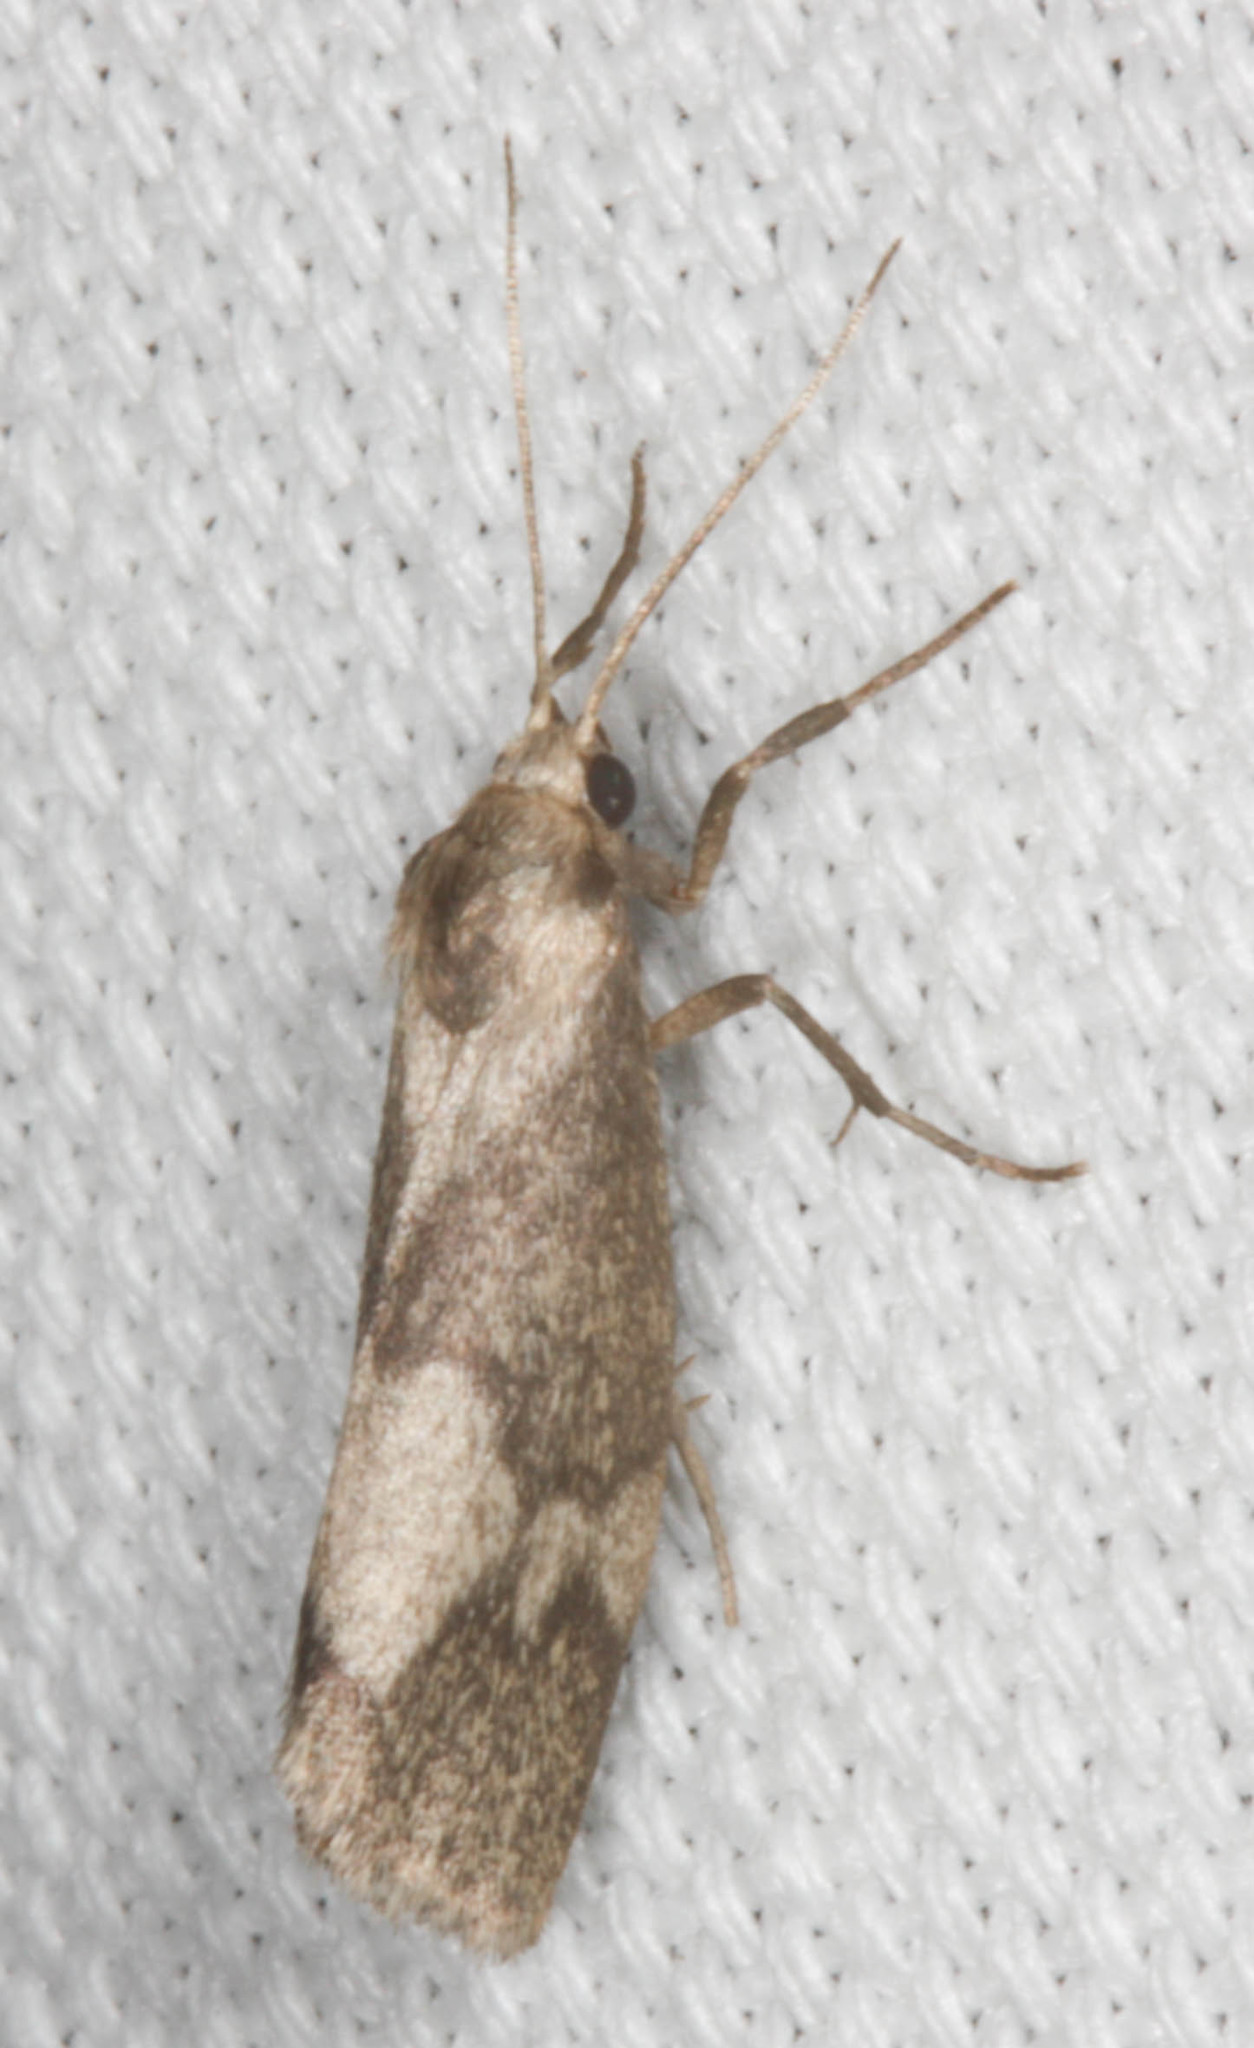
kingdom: Animalia
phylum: Arthropoda
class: Insecta
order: Lepidoptera
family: Erebidae
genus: Cisthene
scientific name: Cisthene faustinula
